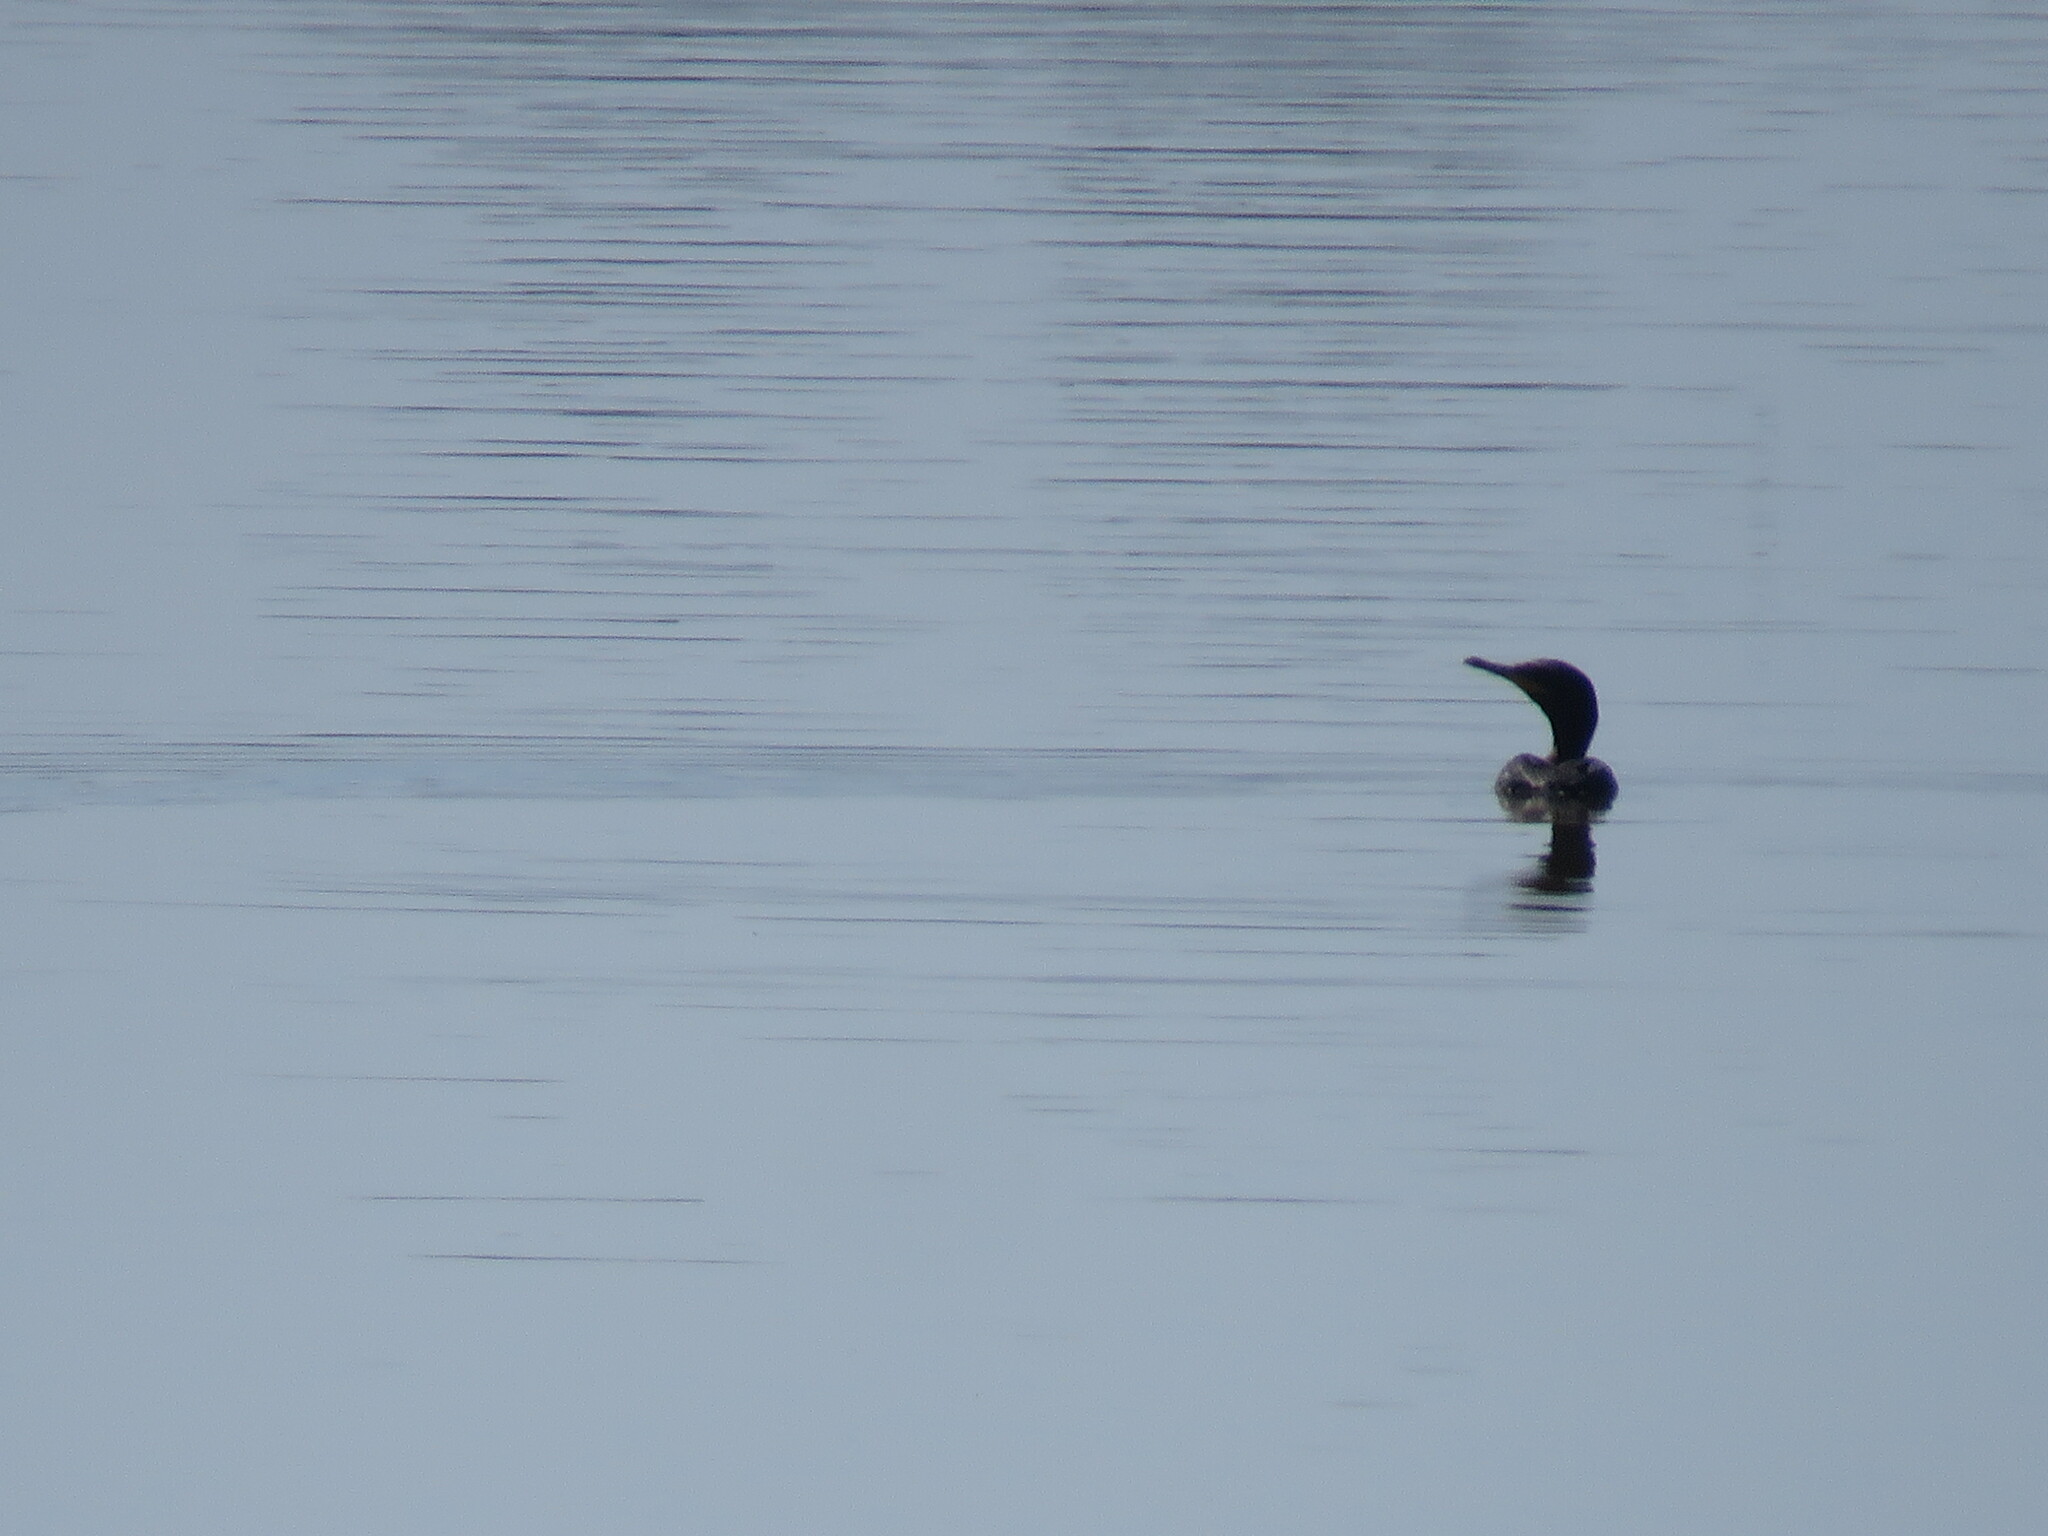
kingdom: Animalia
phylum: Chordata
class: Aves
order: Suliformes
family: Phalacrocoracidae
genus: Phalacrocorax
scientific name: Phalacrocorax brasilianus
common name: Neotropic cormorant
